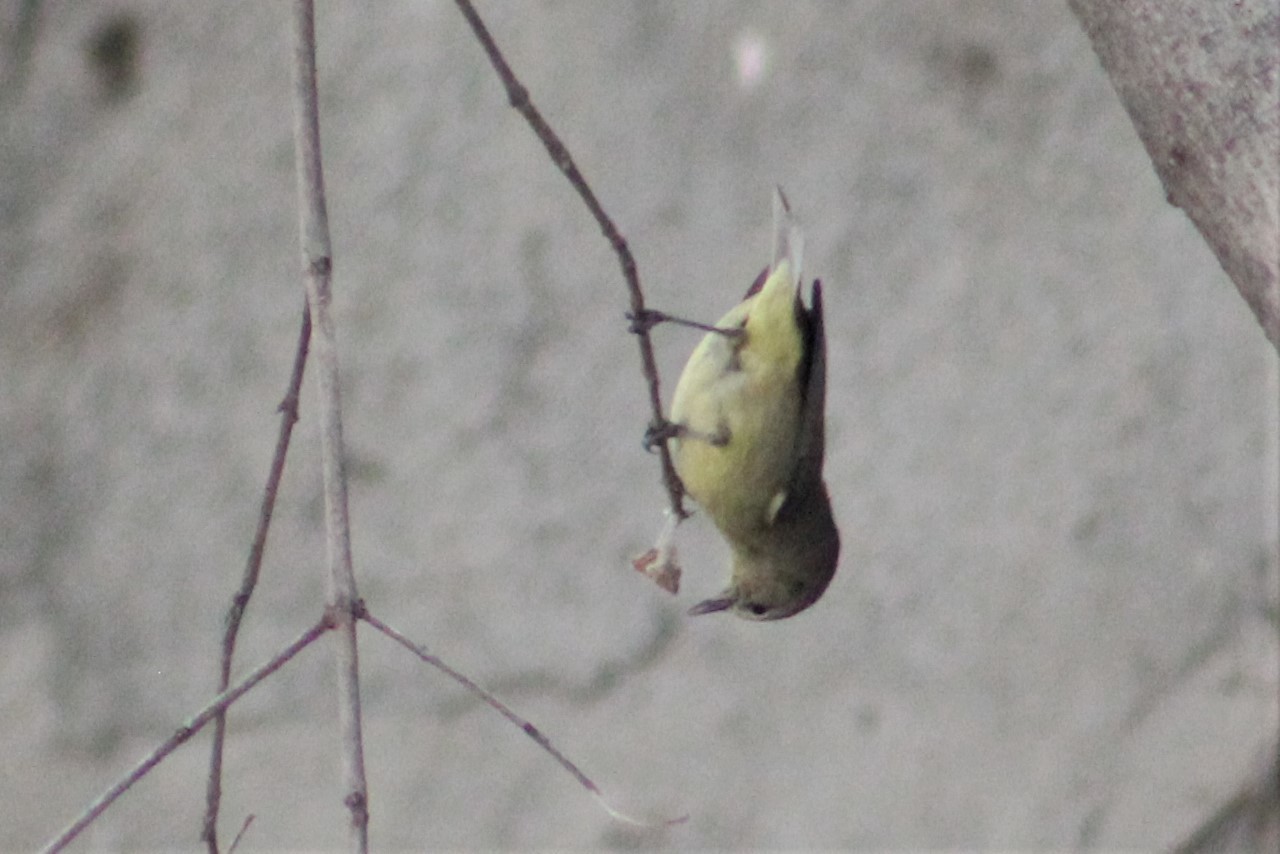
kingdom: Animalia
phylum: Chordata
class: Aves
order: Passeriformes
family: Parulidae
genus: Leiothlypis
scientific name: Leiothlypis celata
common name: Orange-crowned warbler
